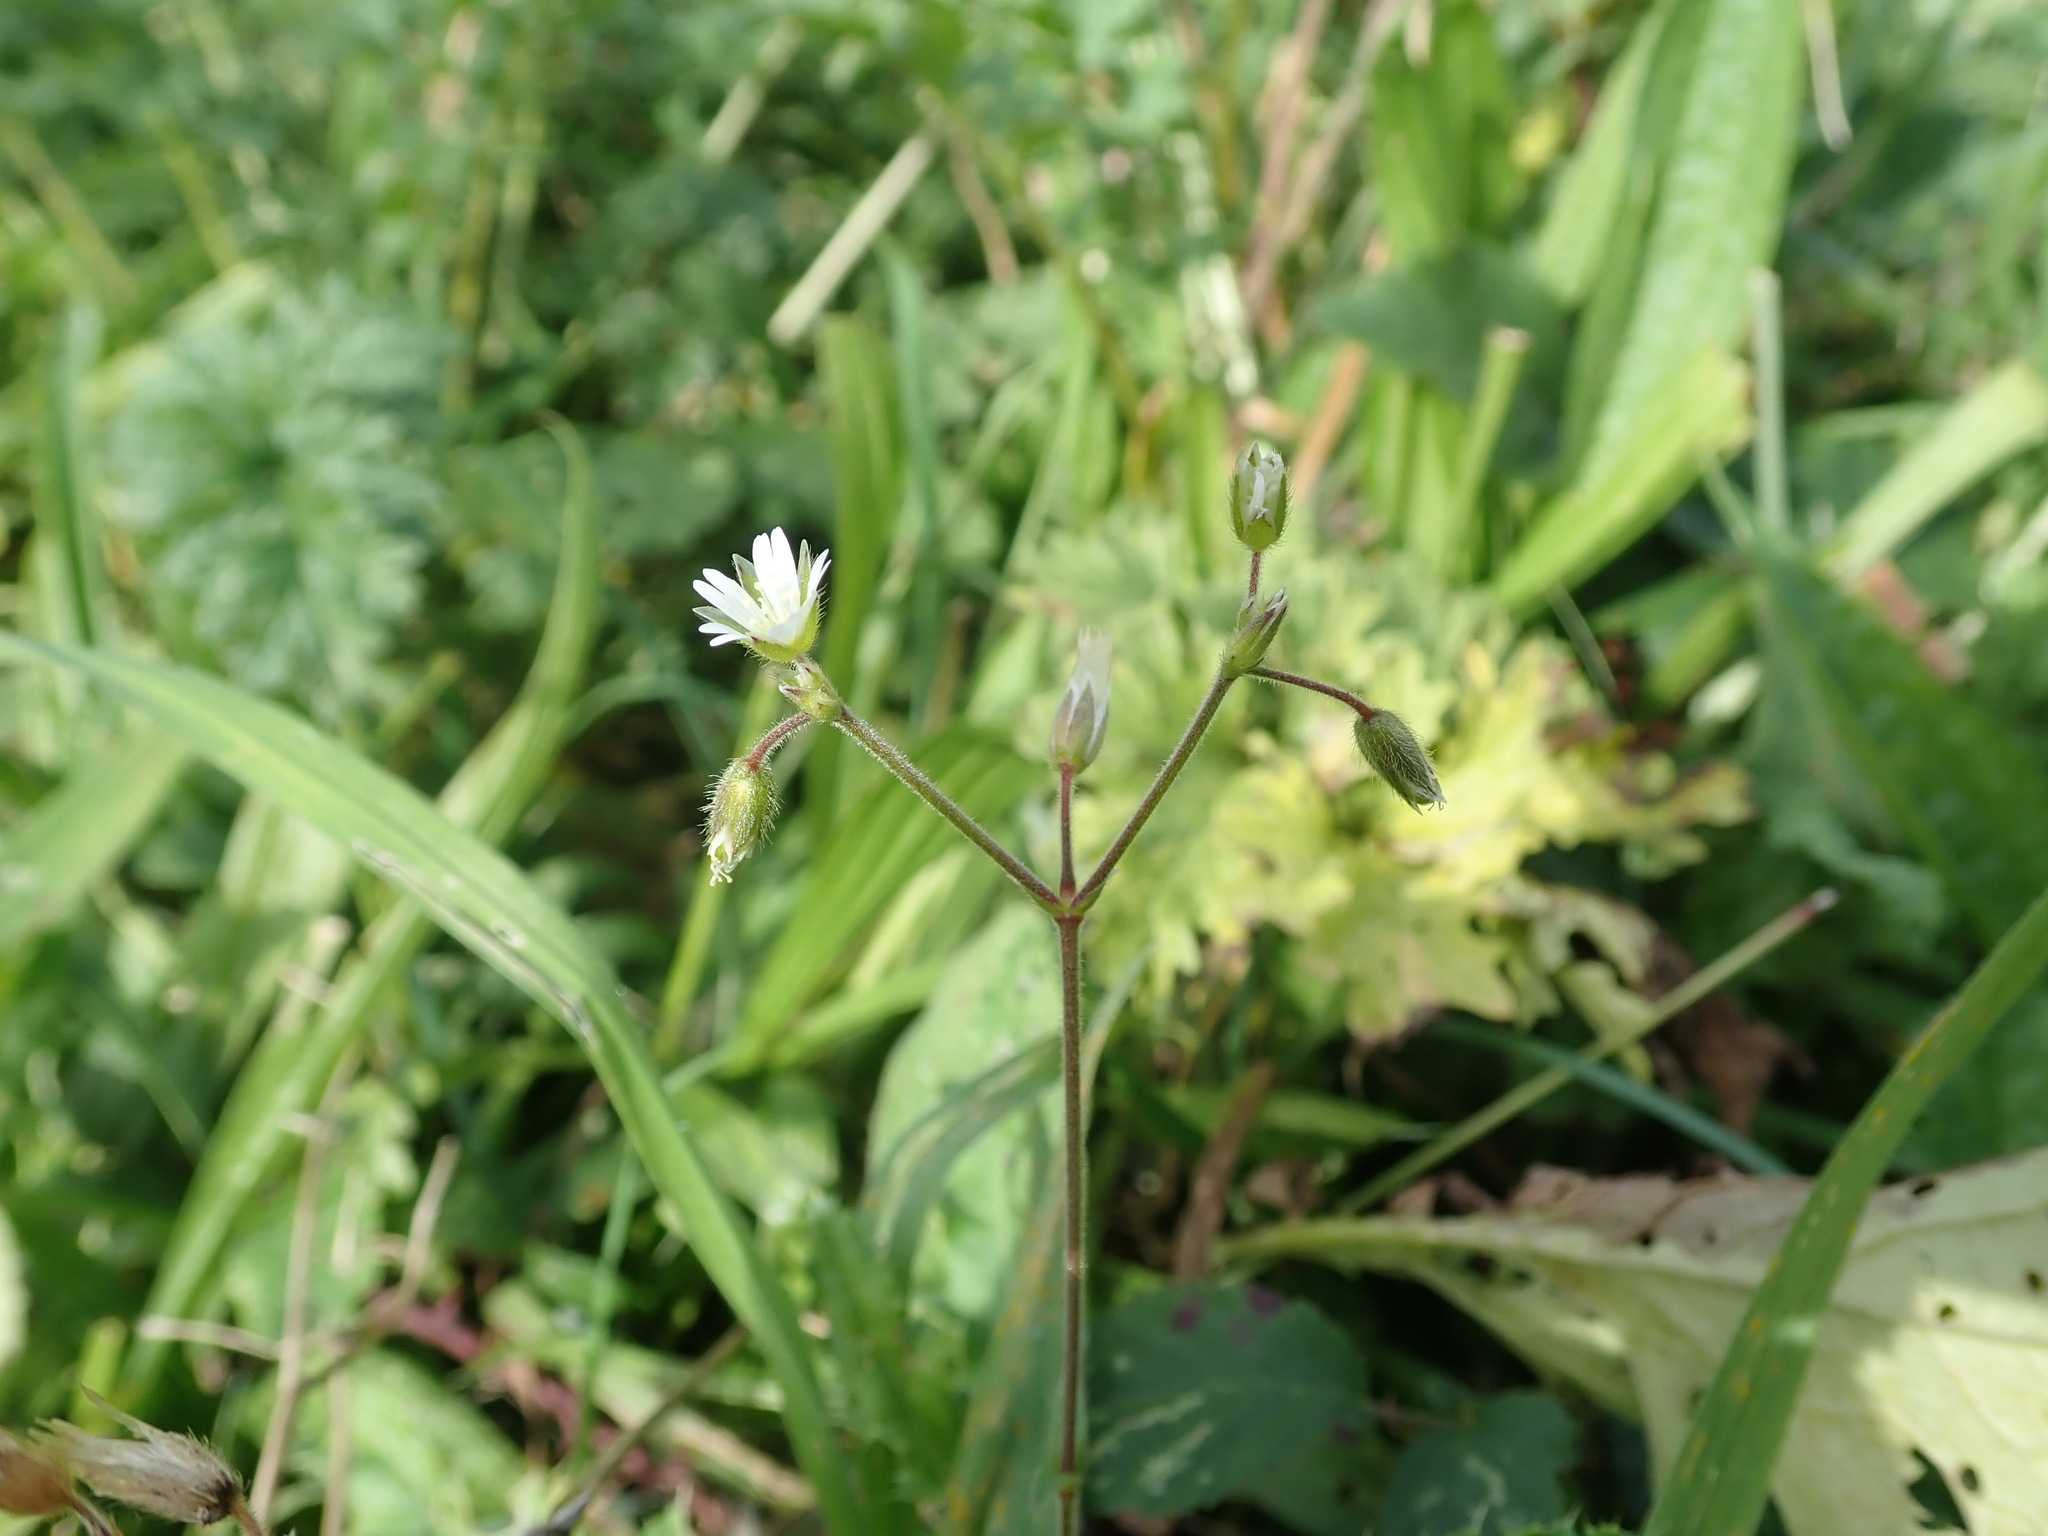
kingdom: Plantae
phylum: Tracheophyta
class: Magnoliopsida
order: Caryophyllales
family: Caryophyllaceae
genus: Cerastium
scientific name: Cerastium fontanum
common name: Common mouse-ear
